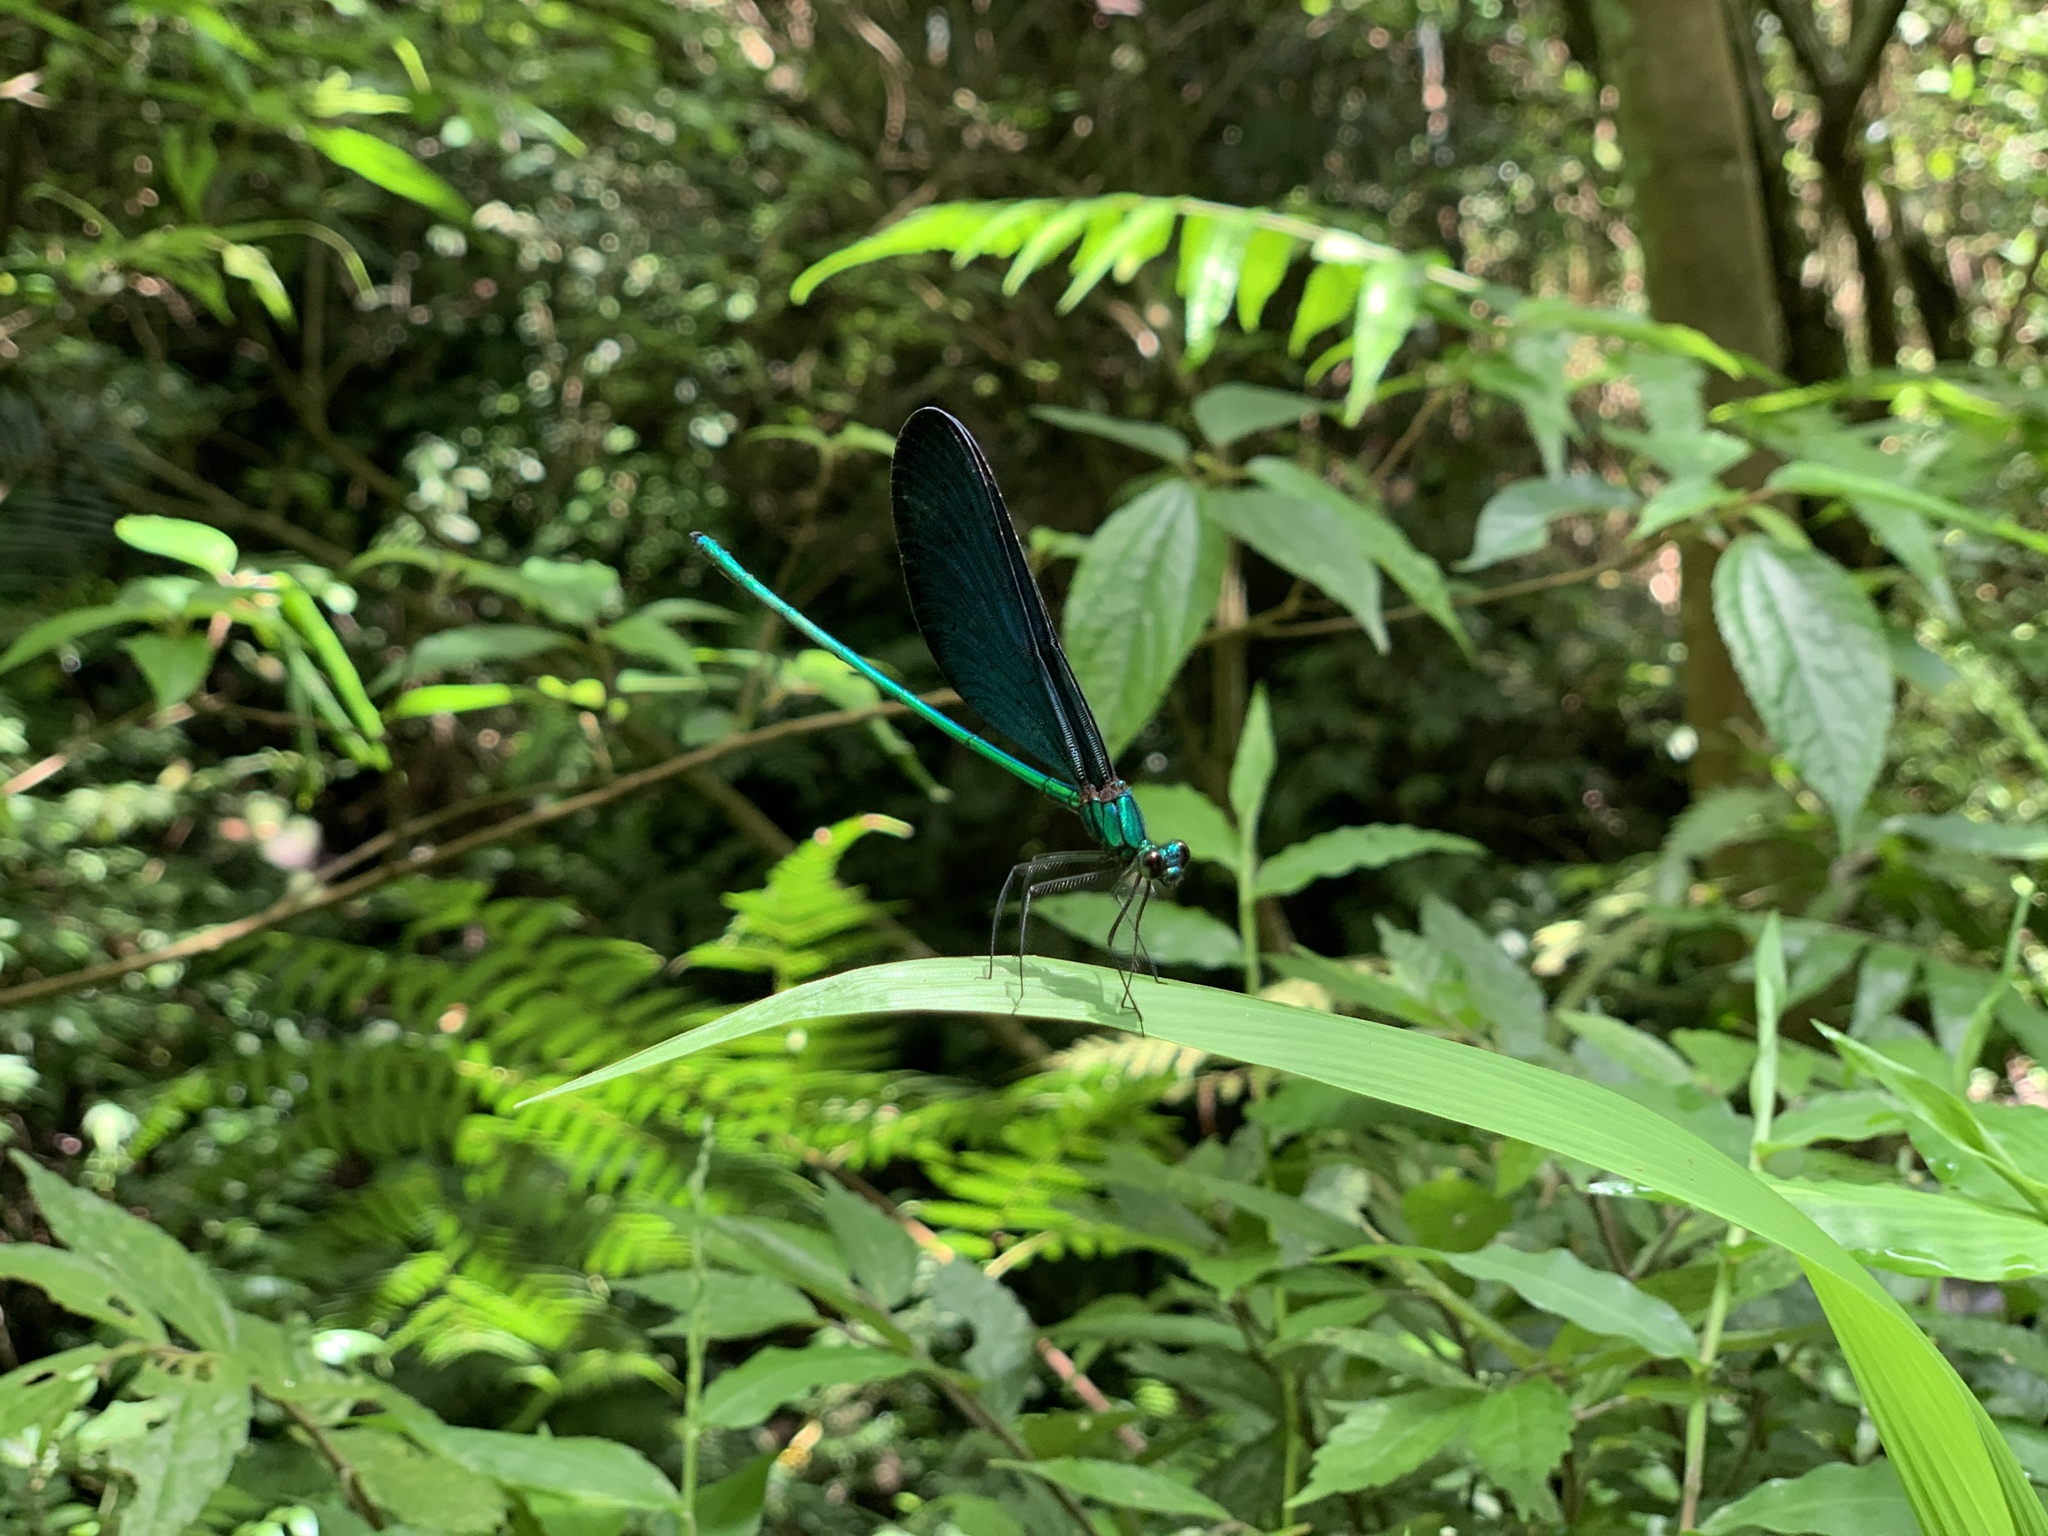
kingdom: Animalia
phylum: Arthropoda
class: Insecta
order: Odonata
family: Calopterygidae
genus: Matrona
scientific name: Matrona cyanoptera
